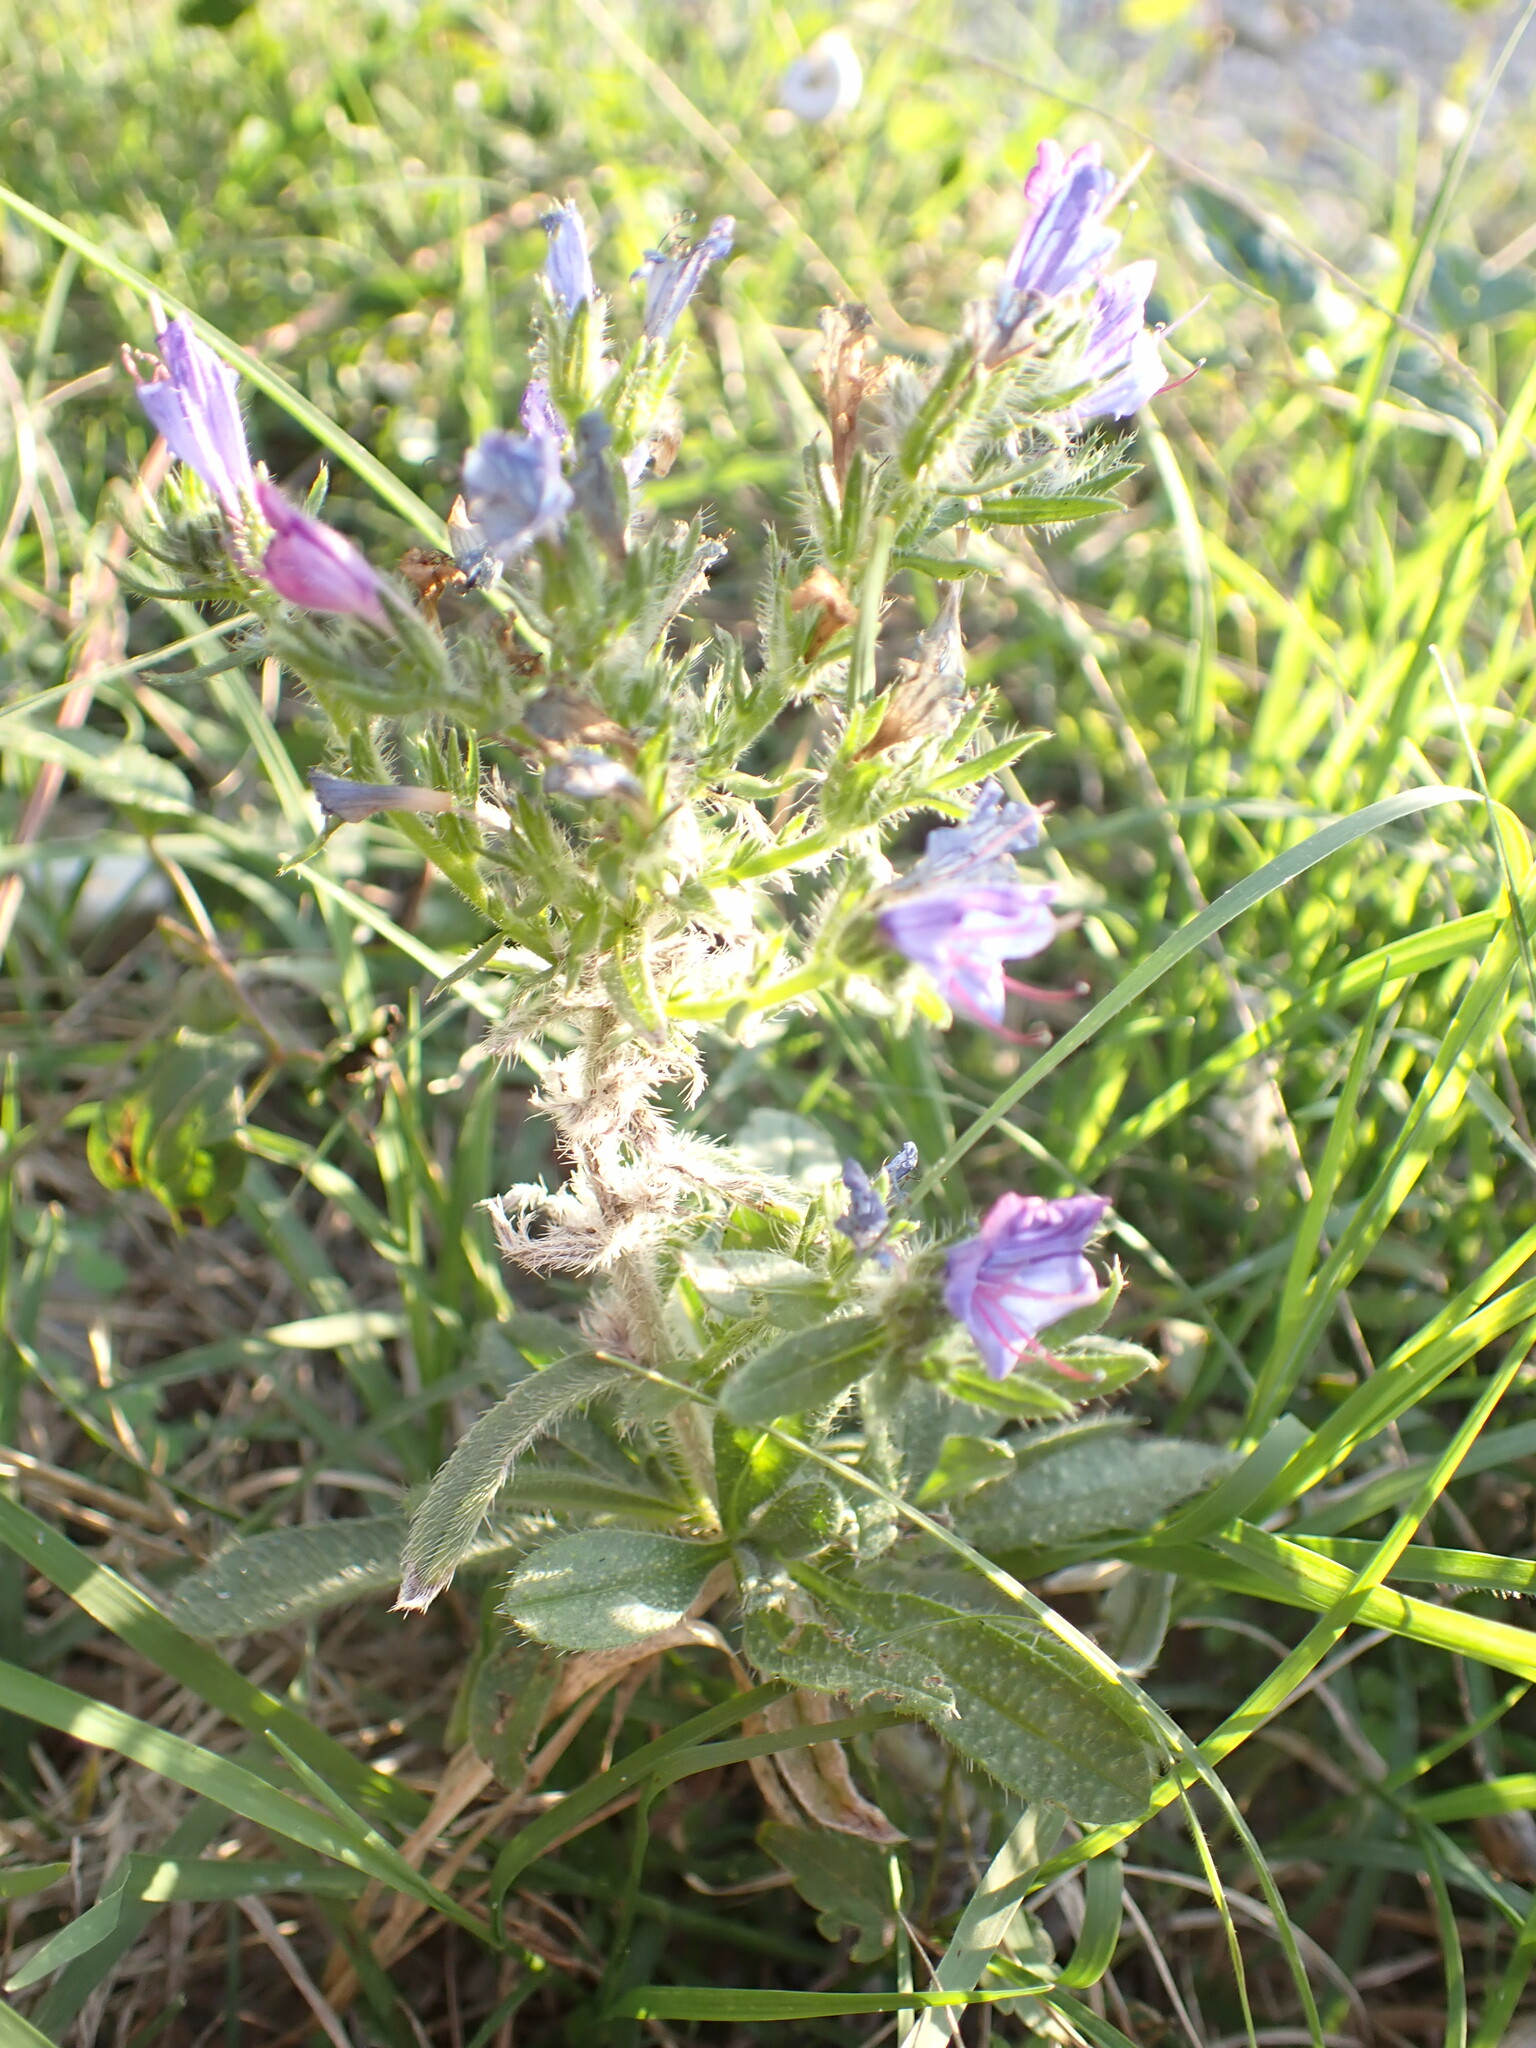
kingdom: Plantae
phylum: Tracheophyta
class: Magnoliopsida
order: Boraginales
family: Boraginaceae
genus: Echium
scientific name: Echium vulgare
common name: Common viper's bugloss
